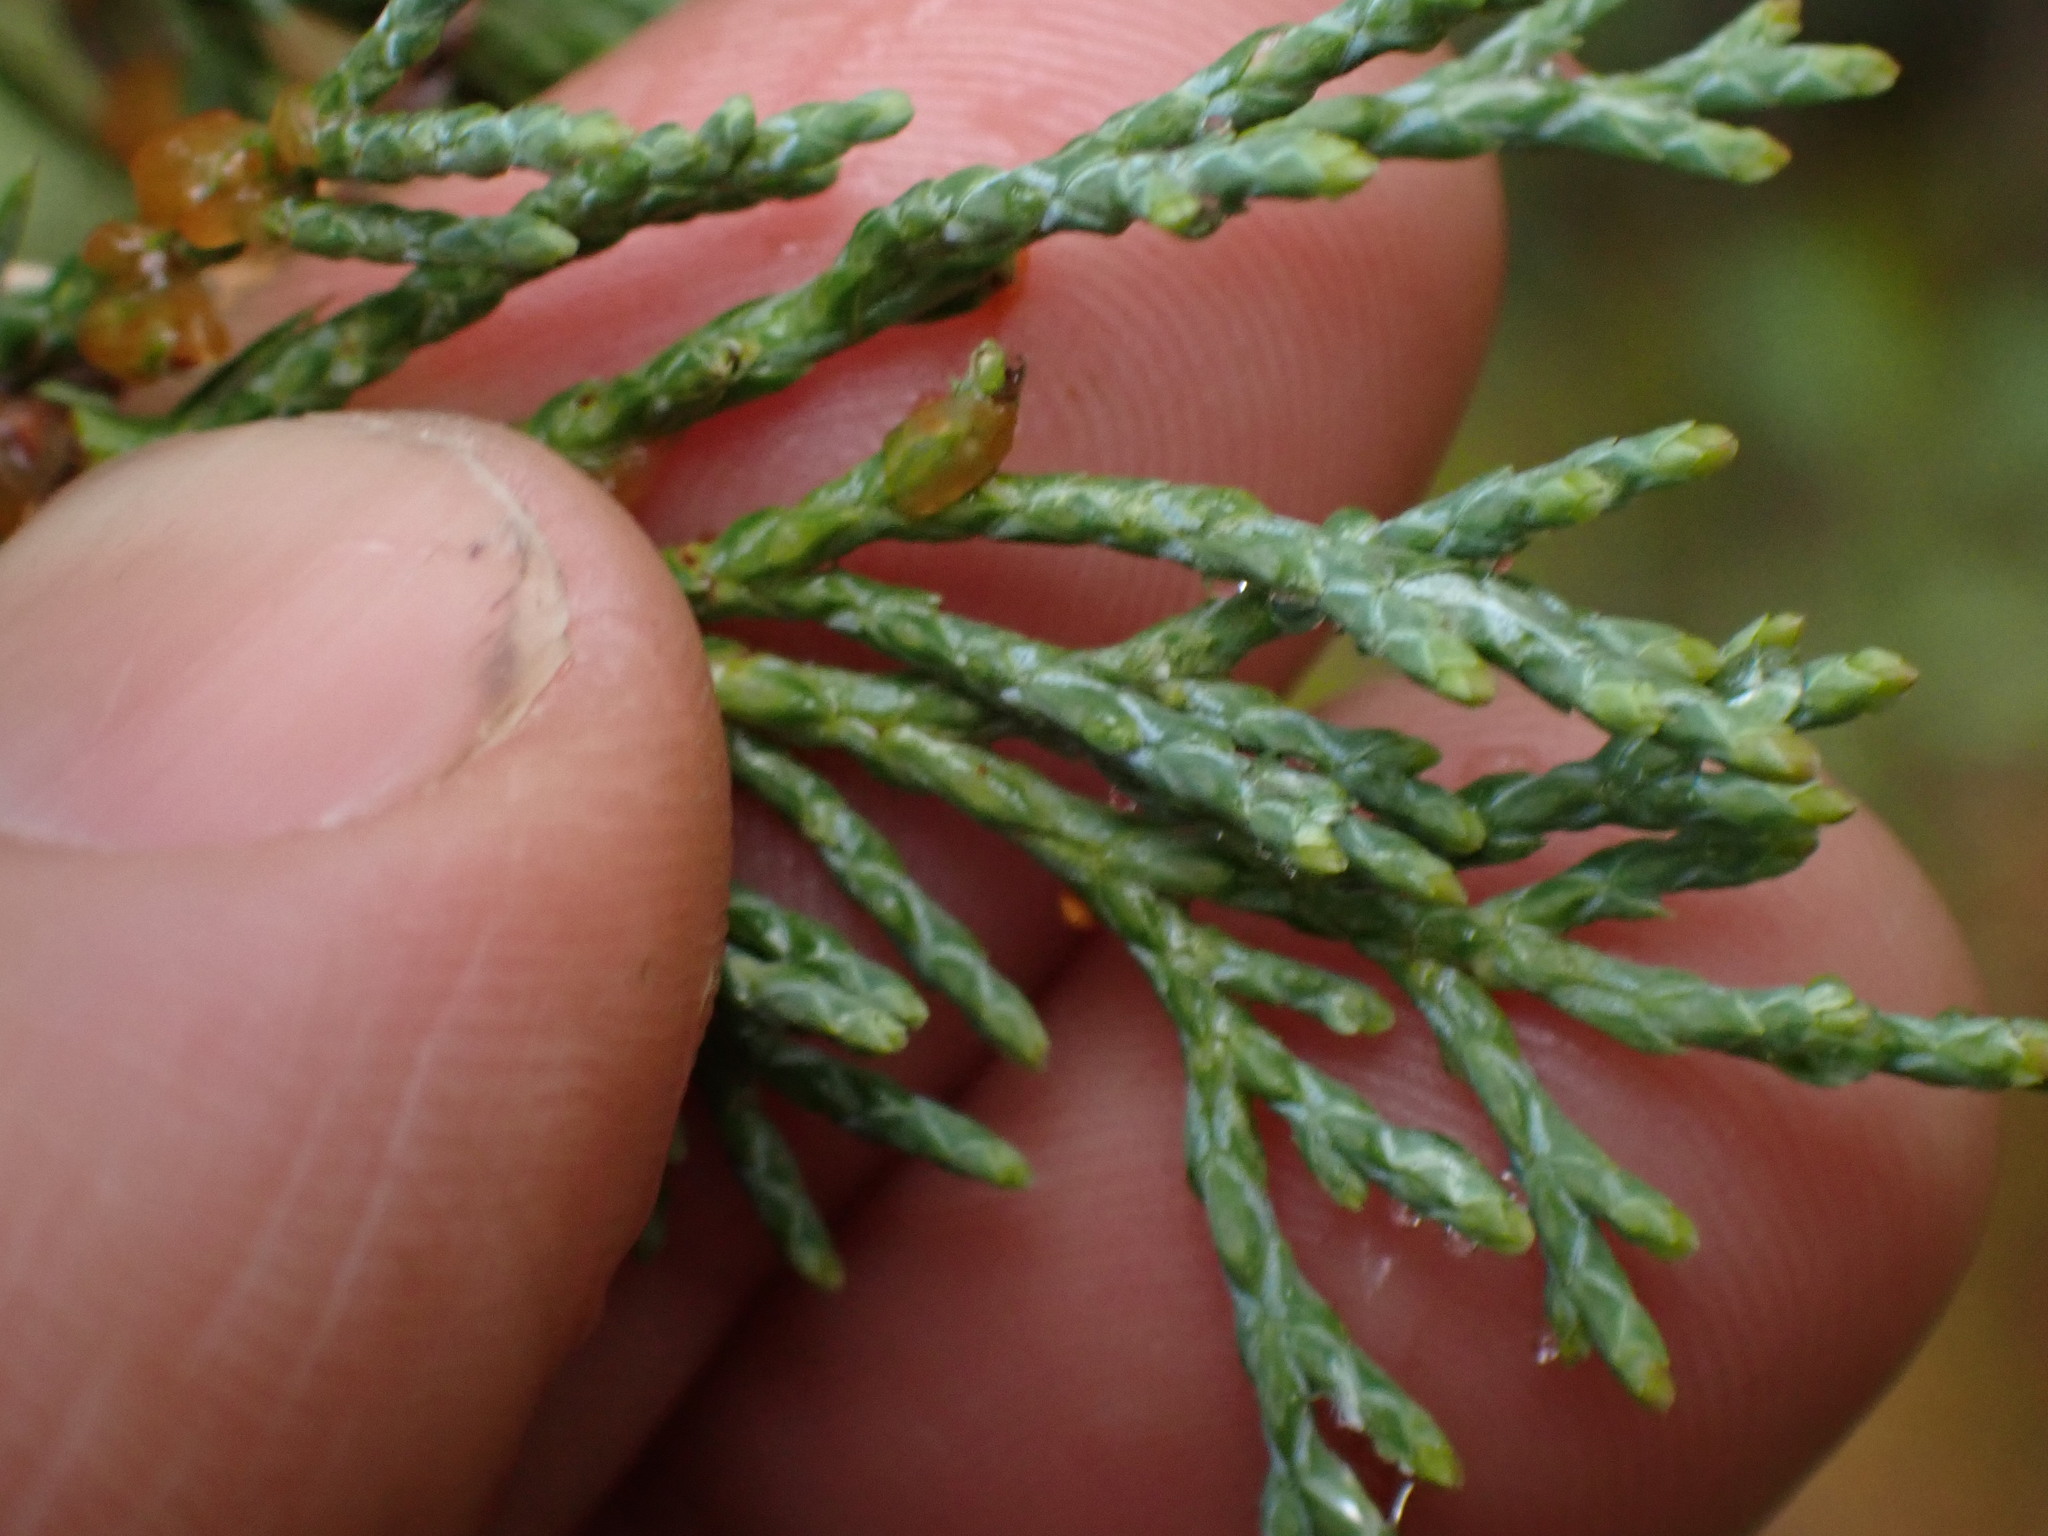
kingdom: Plantae
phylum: Tracheophyta
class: Pinopsida
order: Pinales
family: Cupressaceae
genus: Juniperus
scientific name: Juniperus scopulorum
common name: Rocky mountain juniper
